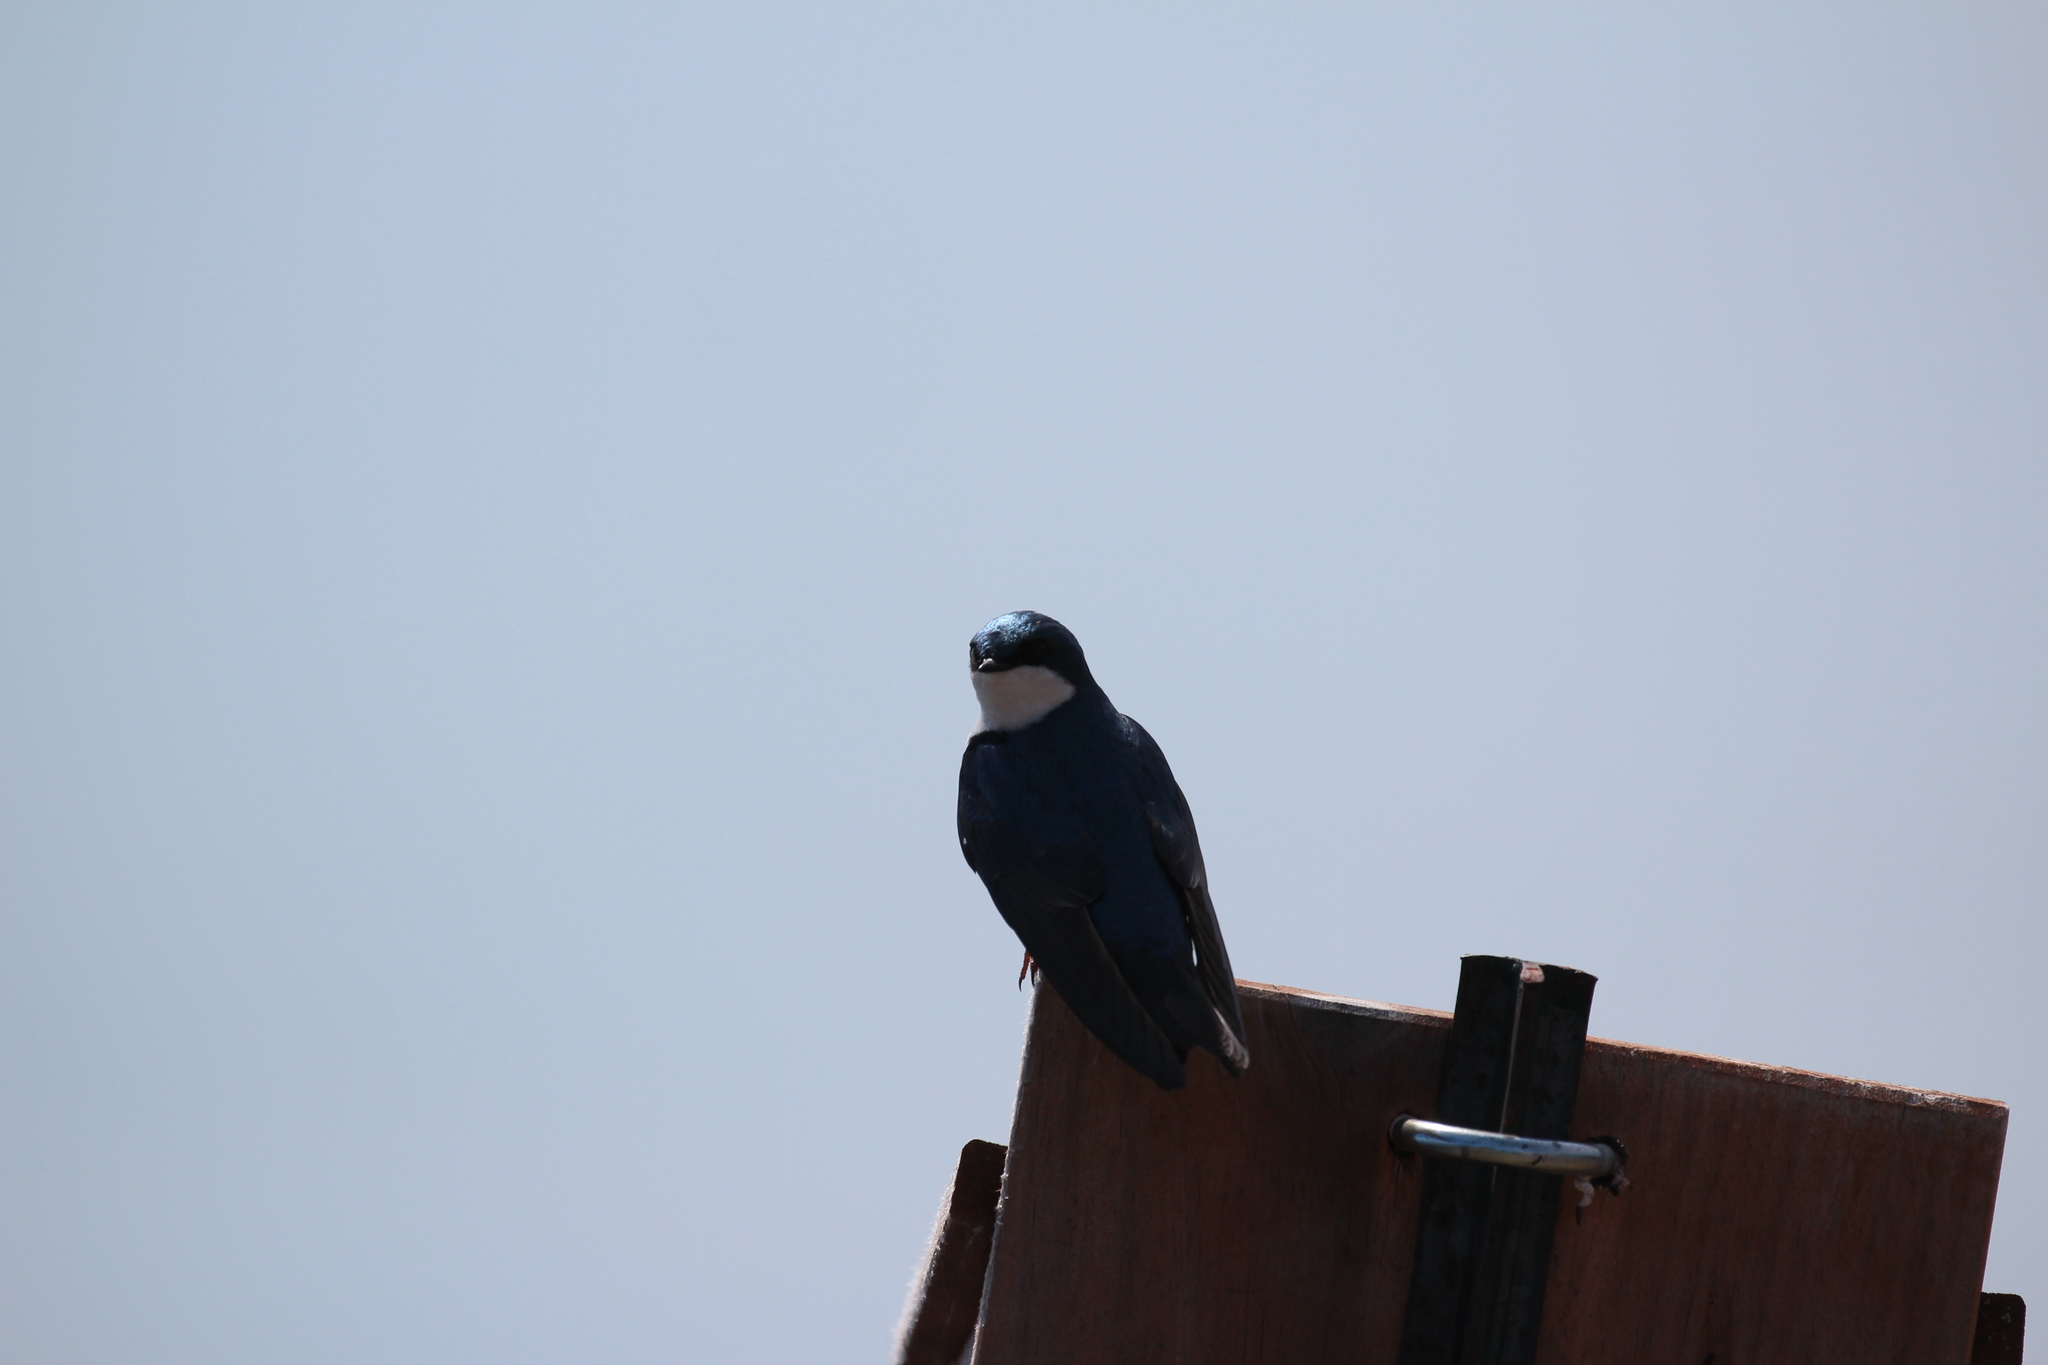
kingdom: Animalia
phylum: Chordata
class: Aves
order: Passeriformes
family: Hirundinidae
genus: Tachycineta
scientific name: Tachycineta bicolor
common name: Tree swallow
